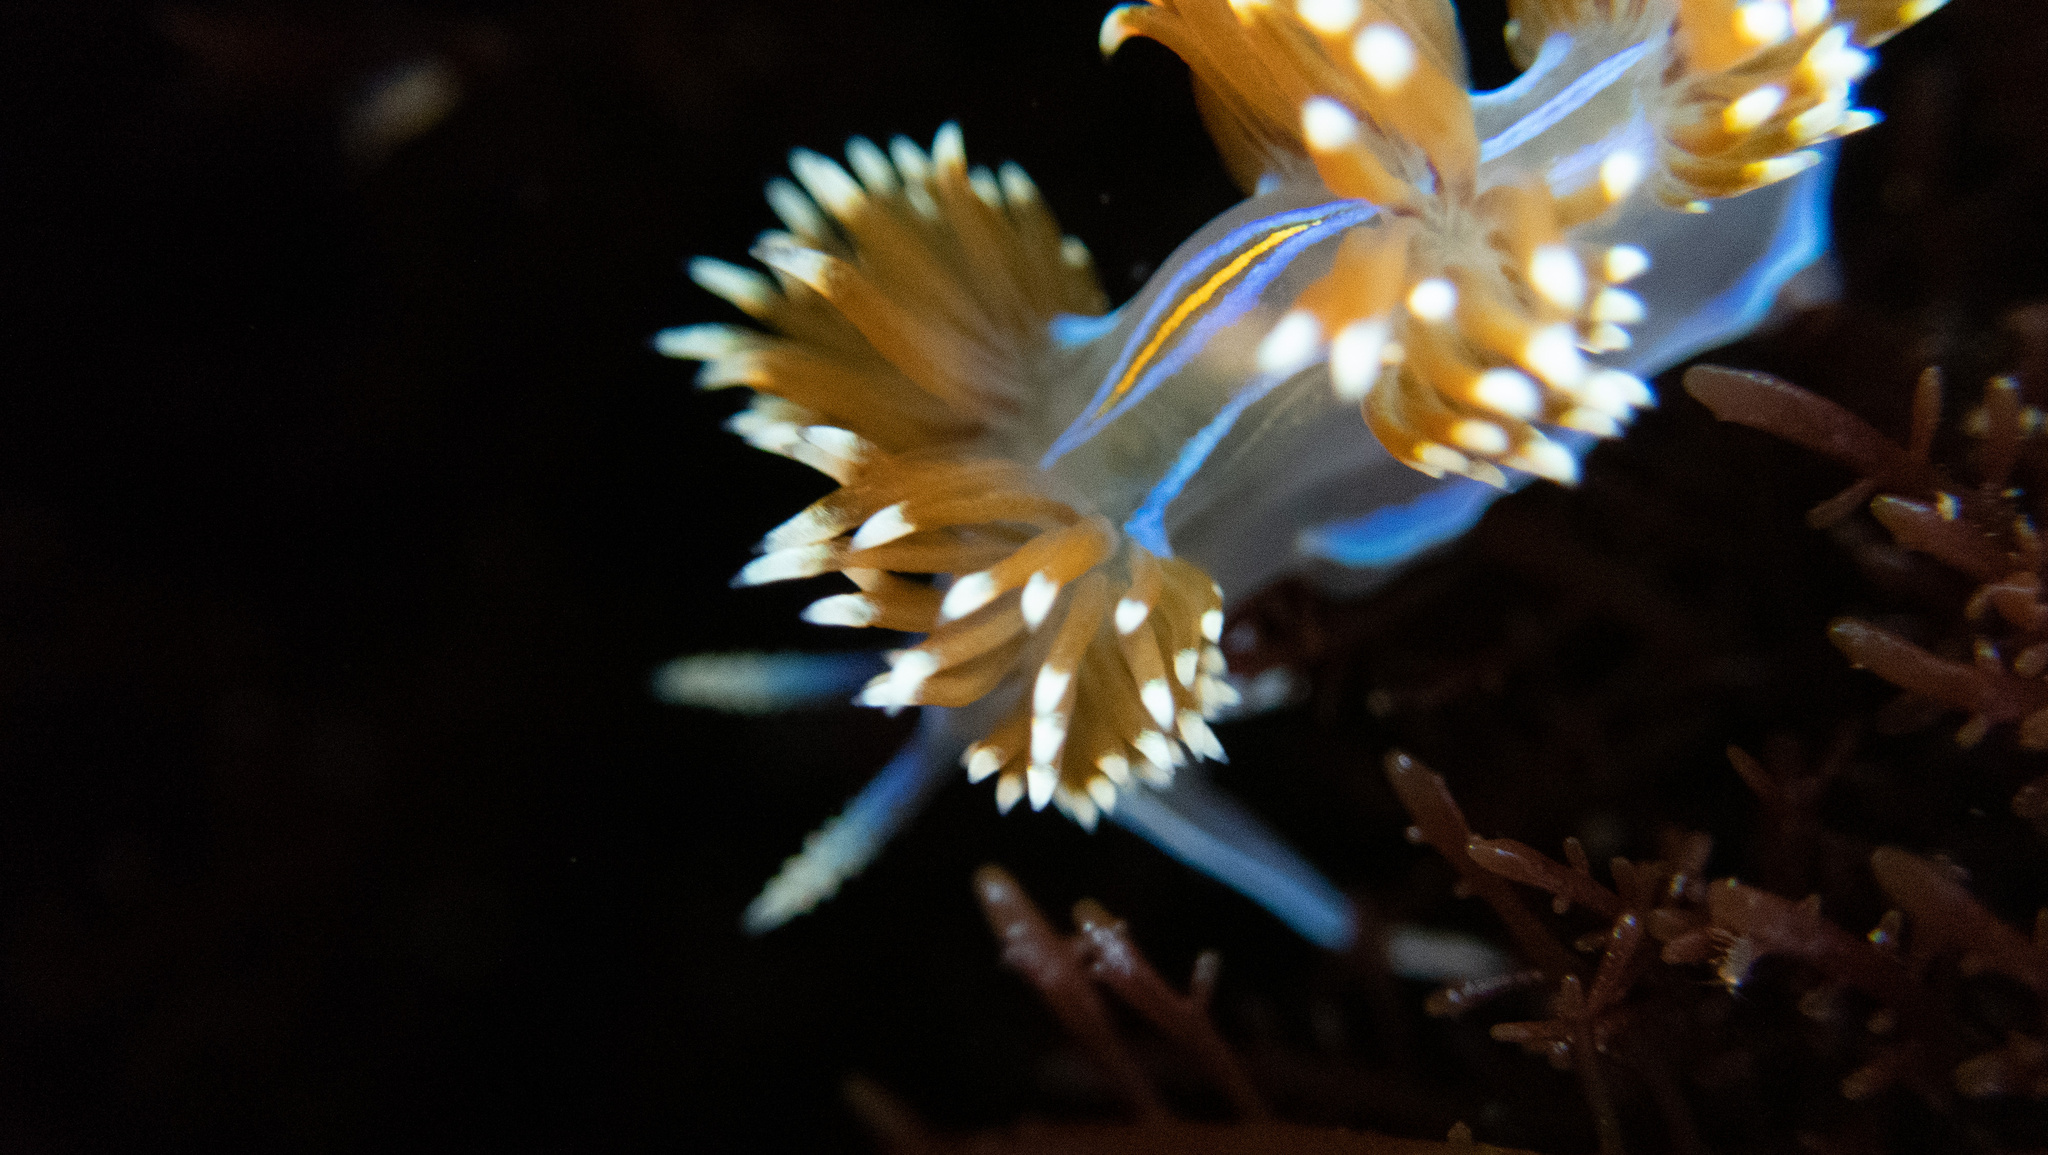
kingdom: Animalia
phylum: Mollusca
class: Gastropoda
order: Nudibranchia
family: Myrrhinidae
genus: Hermissenda
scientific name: Hermissenda opalescens
